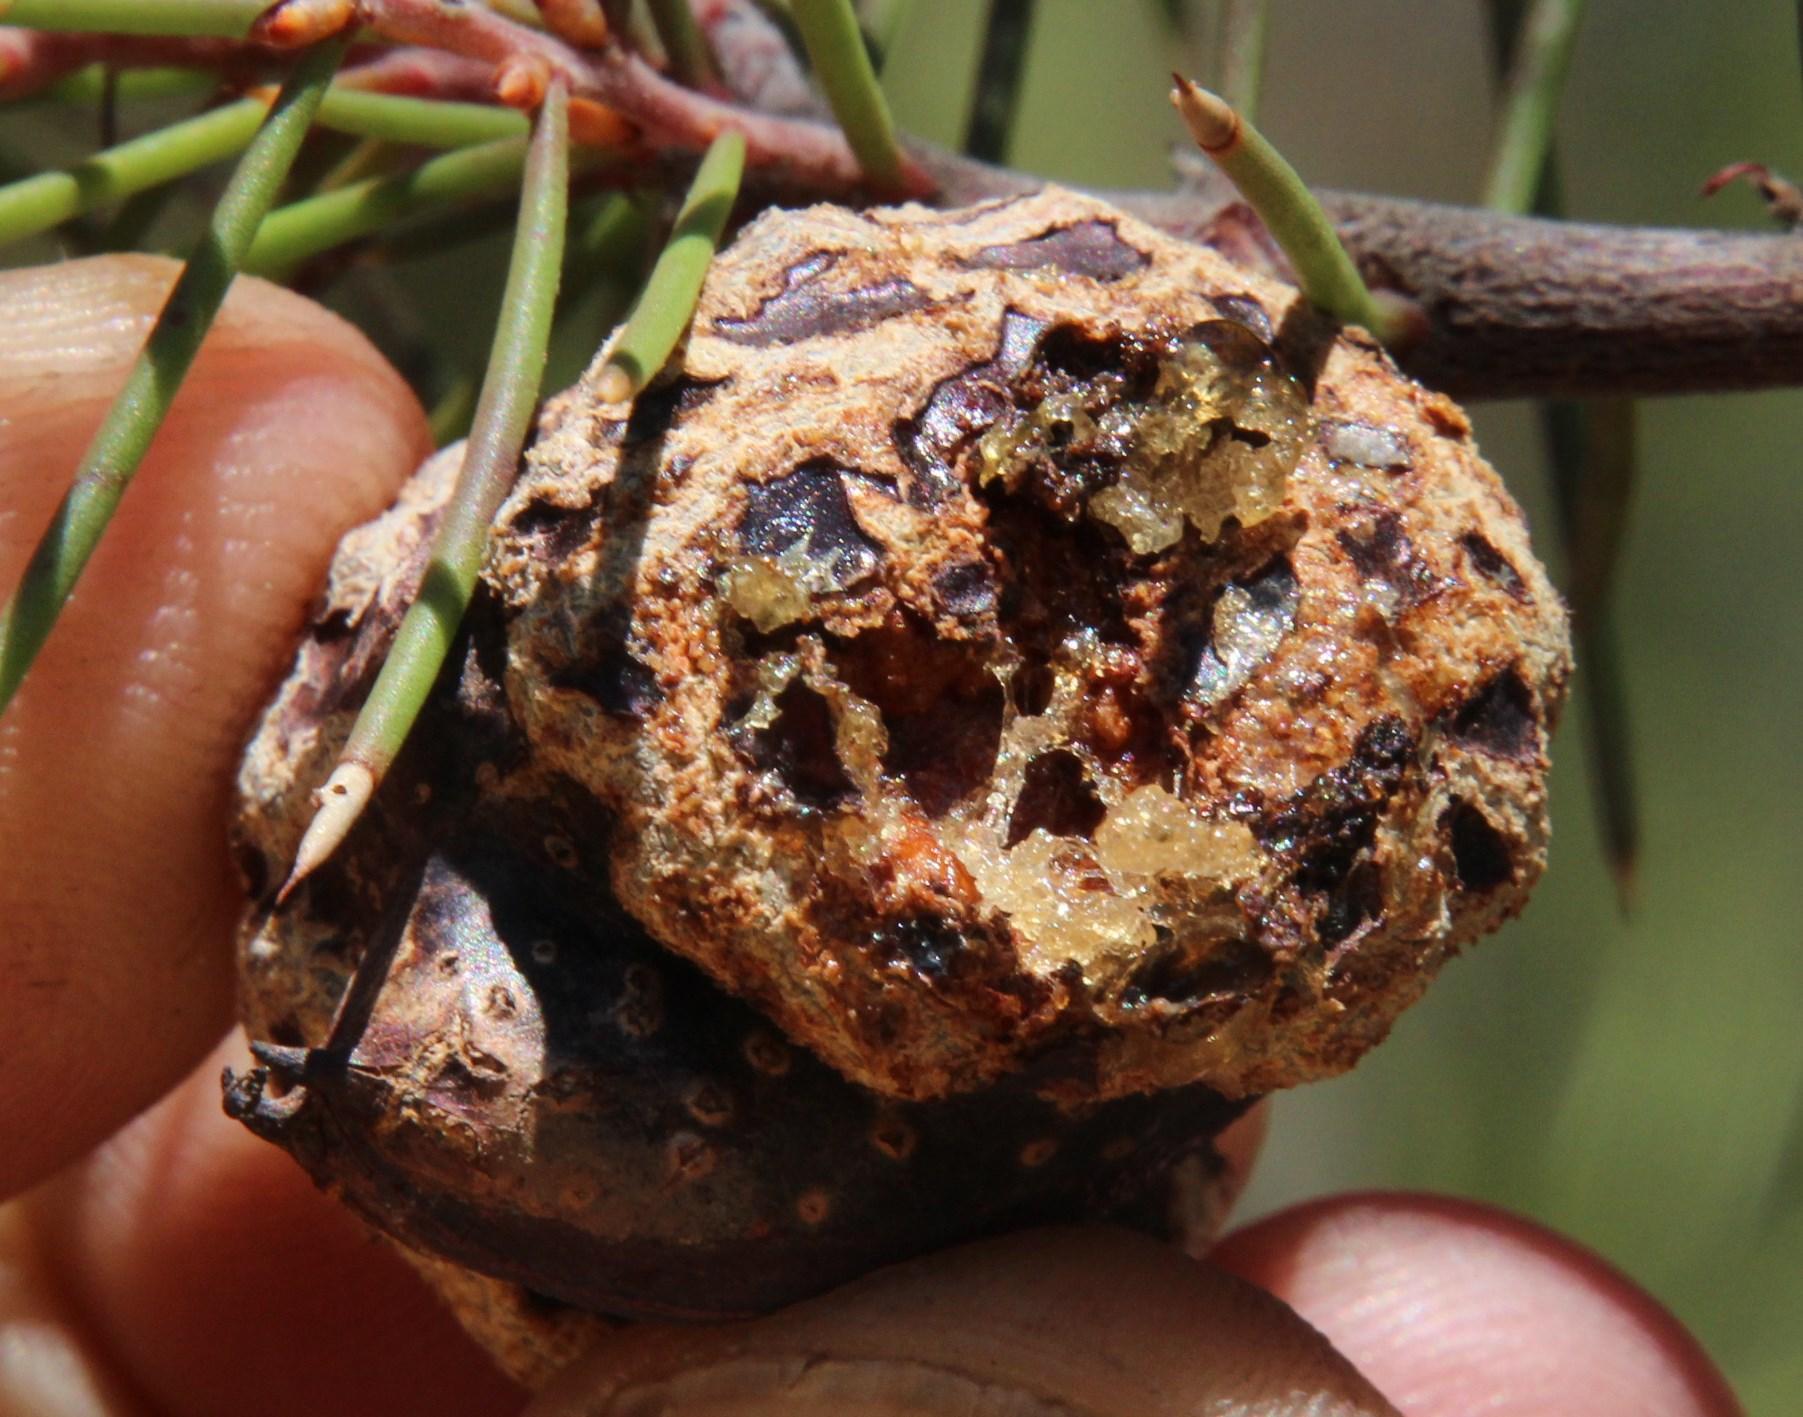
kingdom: Plantae
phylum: Tracheophyta
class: Magnoliopsida
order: Proteales
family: Proteaceae
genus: Hakea
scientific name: Hakea sericea
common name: Needle bush
